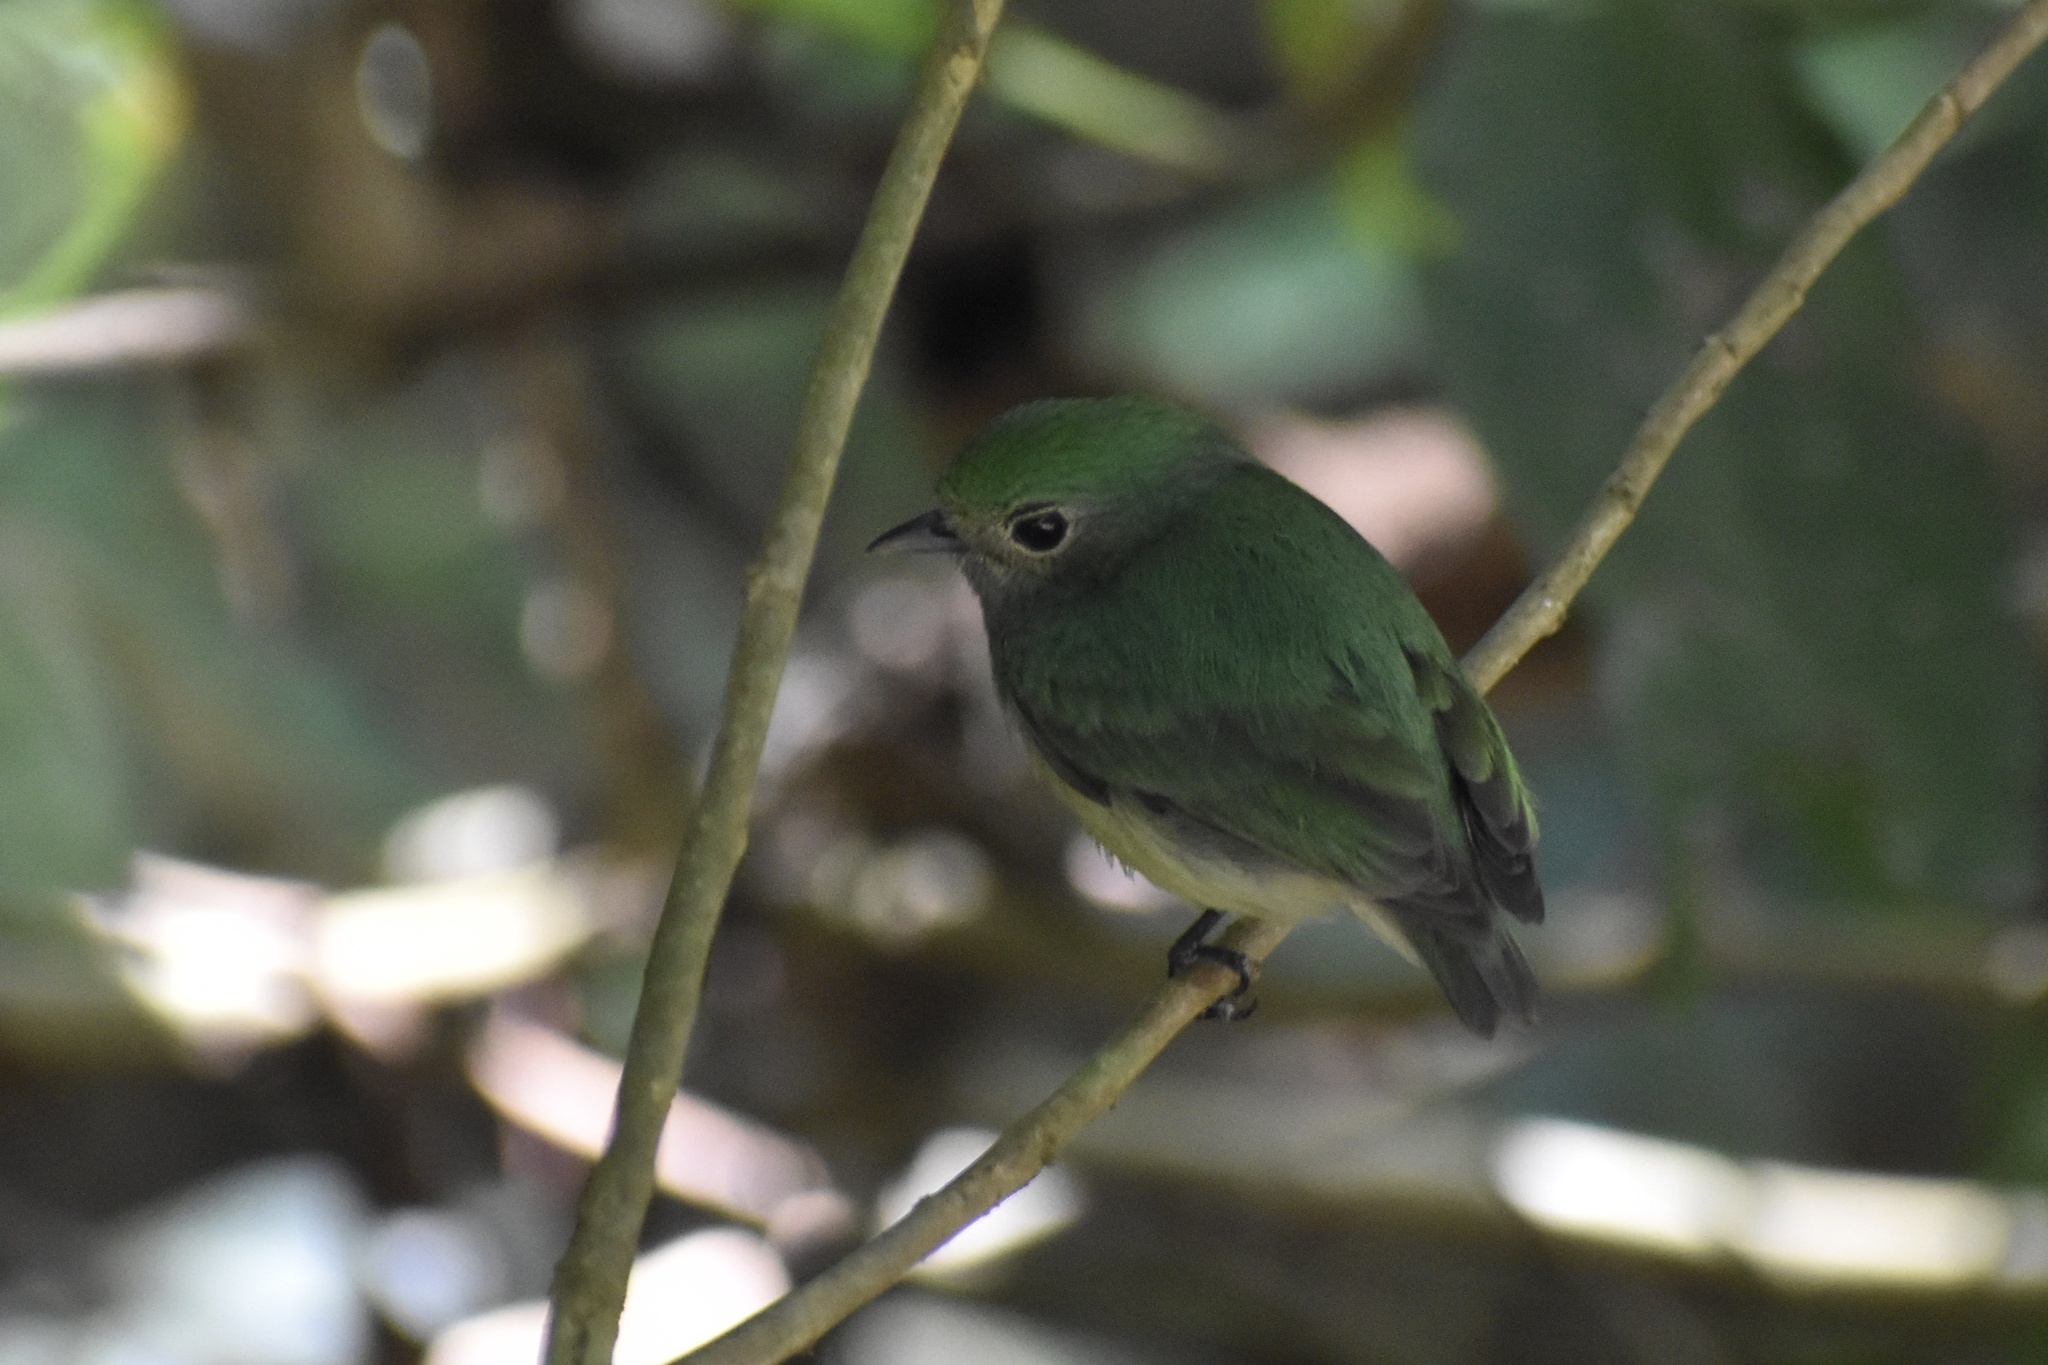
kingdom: Animalia
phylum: Chordata
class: Aves
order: Passeriformes
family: Pipridae
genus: Lepidothrix
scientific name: Lepidothrix coronata
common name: Blue-crowned manakin
